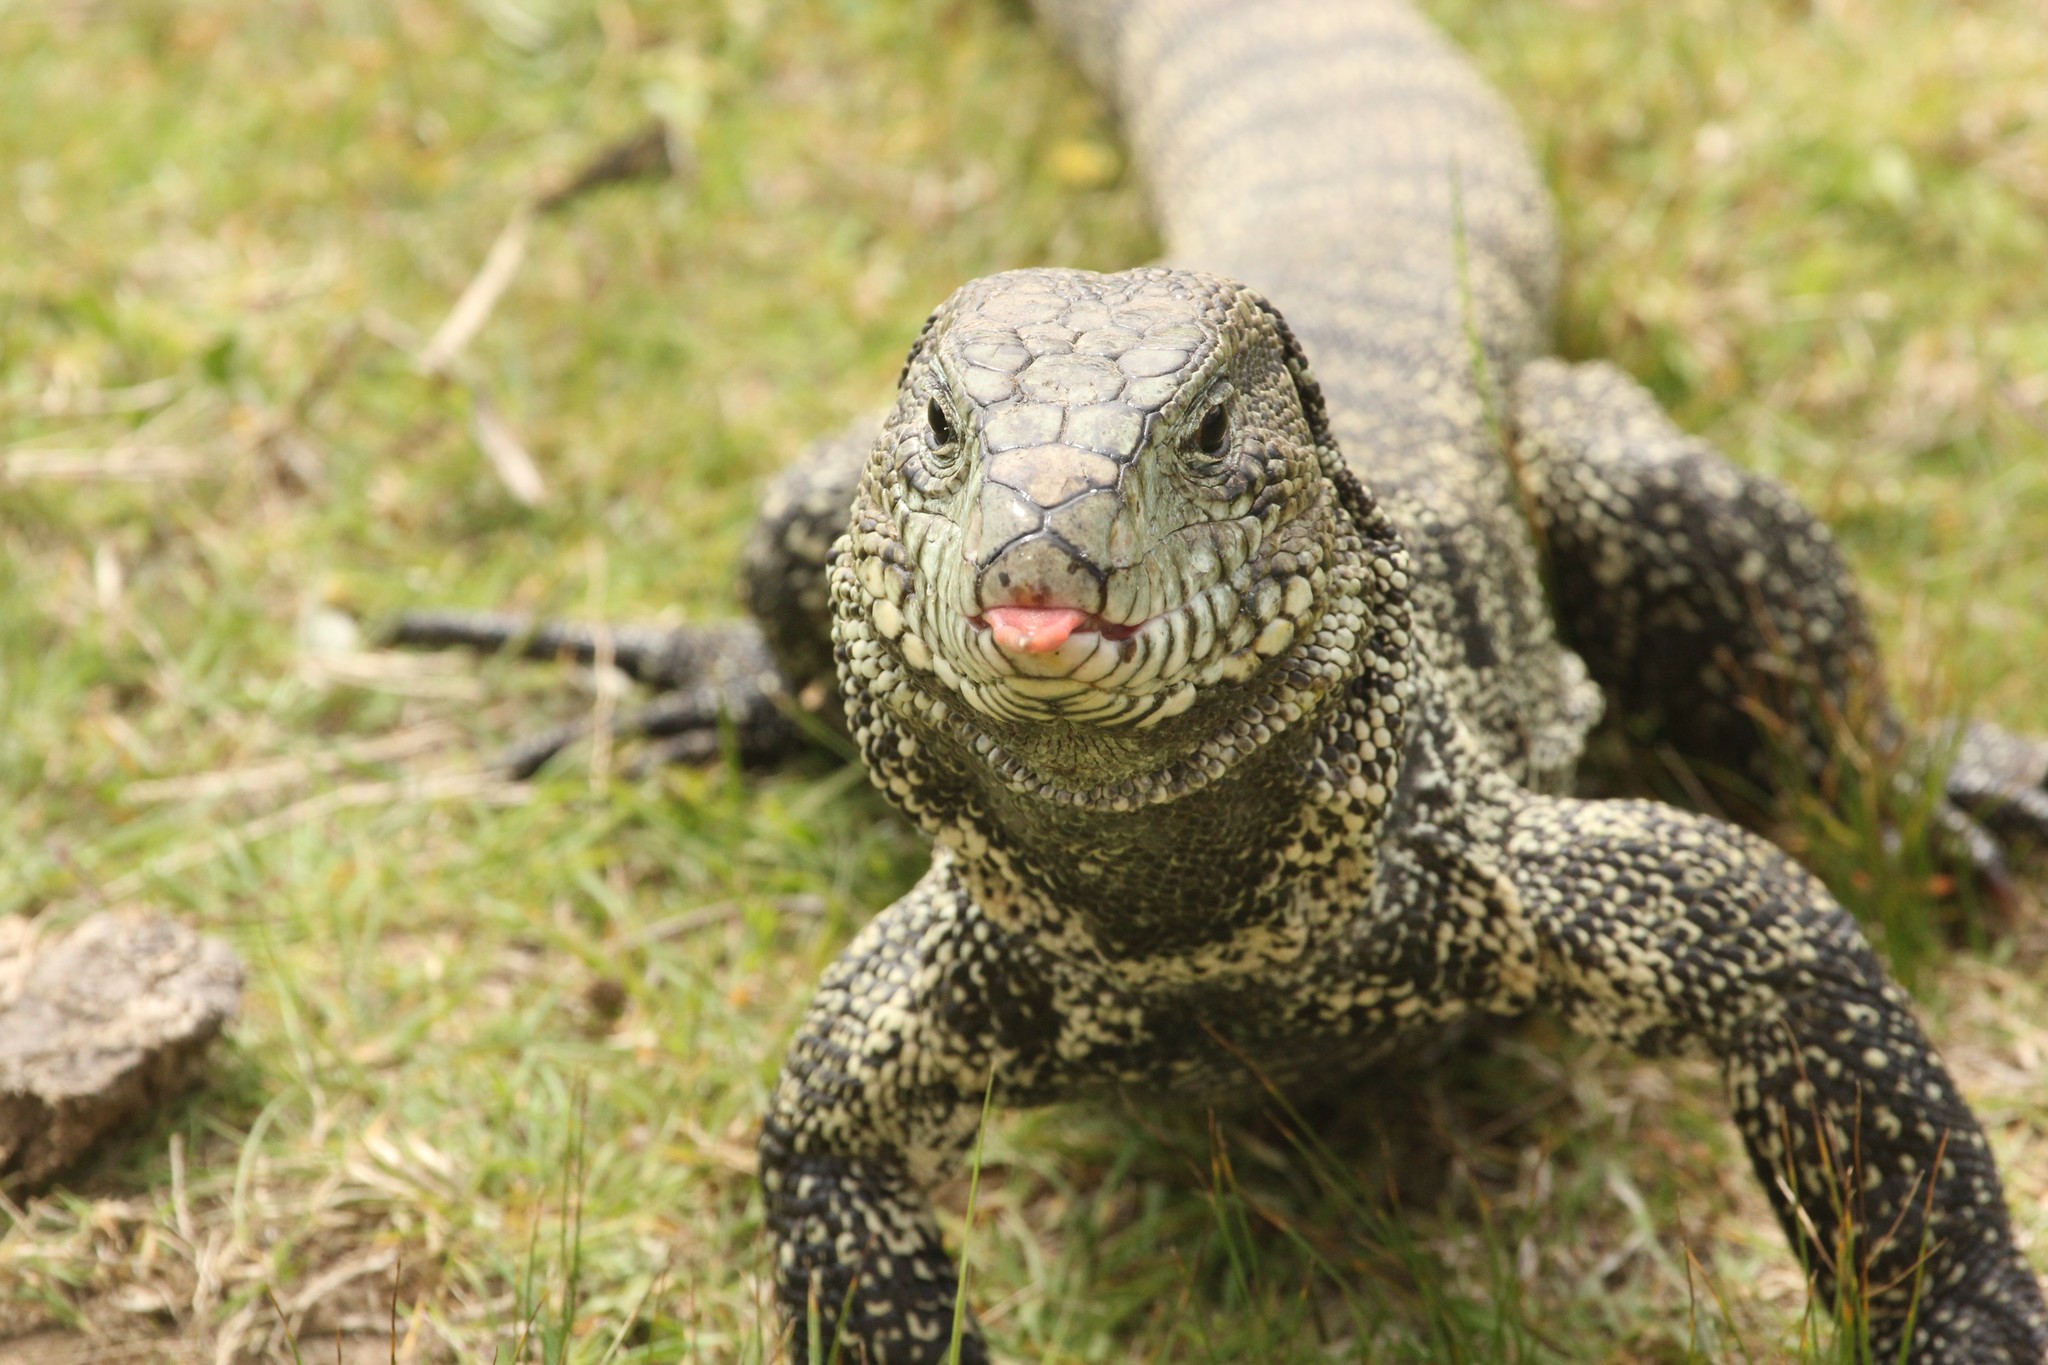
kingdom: Animalia
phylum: Chordata
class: Squamata
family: Teiidae
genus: Salvator
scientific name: Salvator merianae
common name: Argentine black and white tegu
